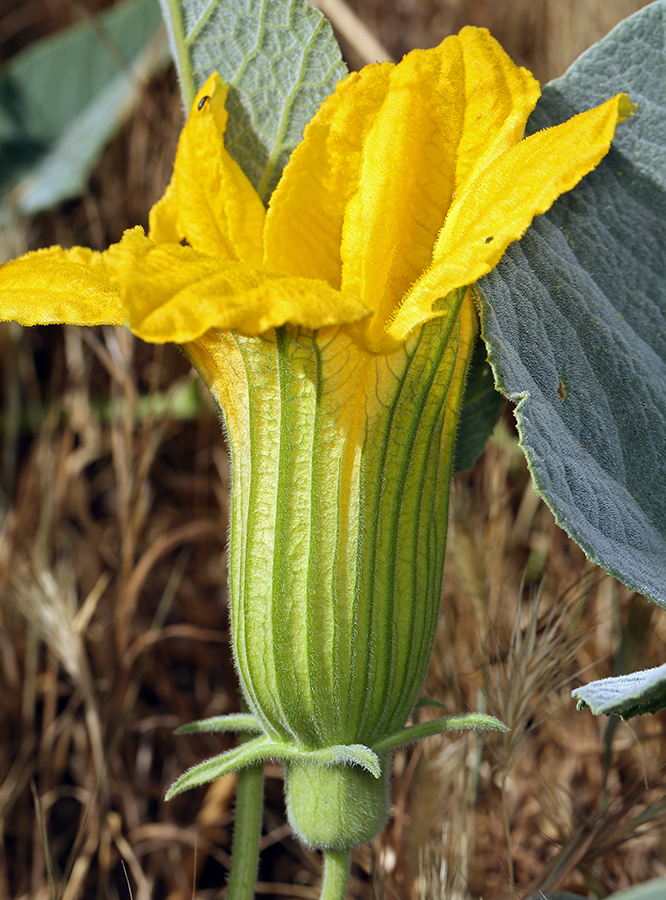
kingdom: Plantae
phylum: Tracheophyta
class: Magnoliopsida
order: Cucurbitales
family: Cucurbitaceae
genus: Cucurbita
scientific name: Cucurbita foetidissima
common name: Buffalo gourd
